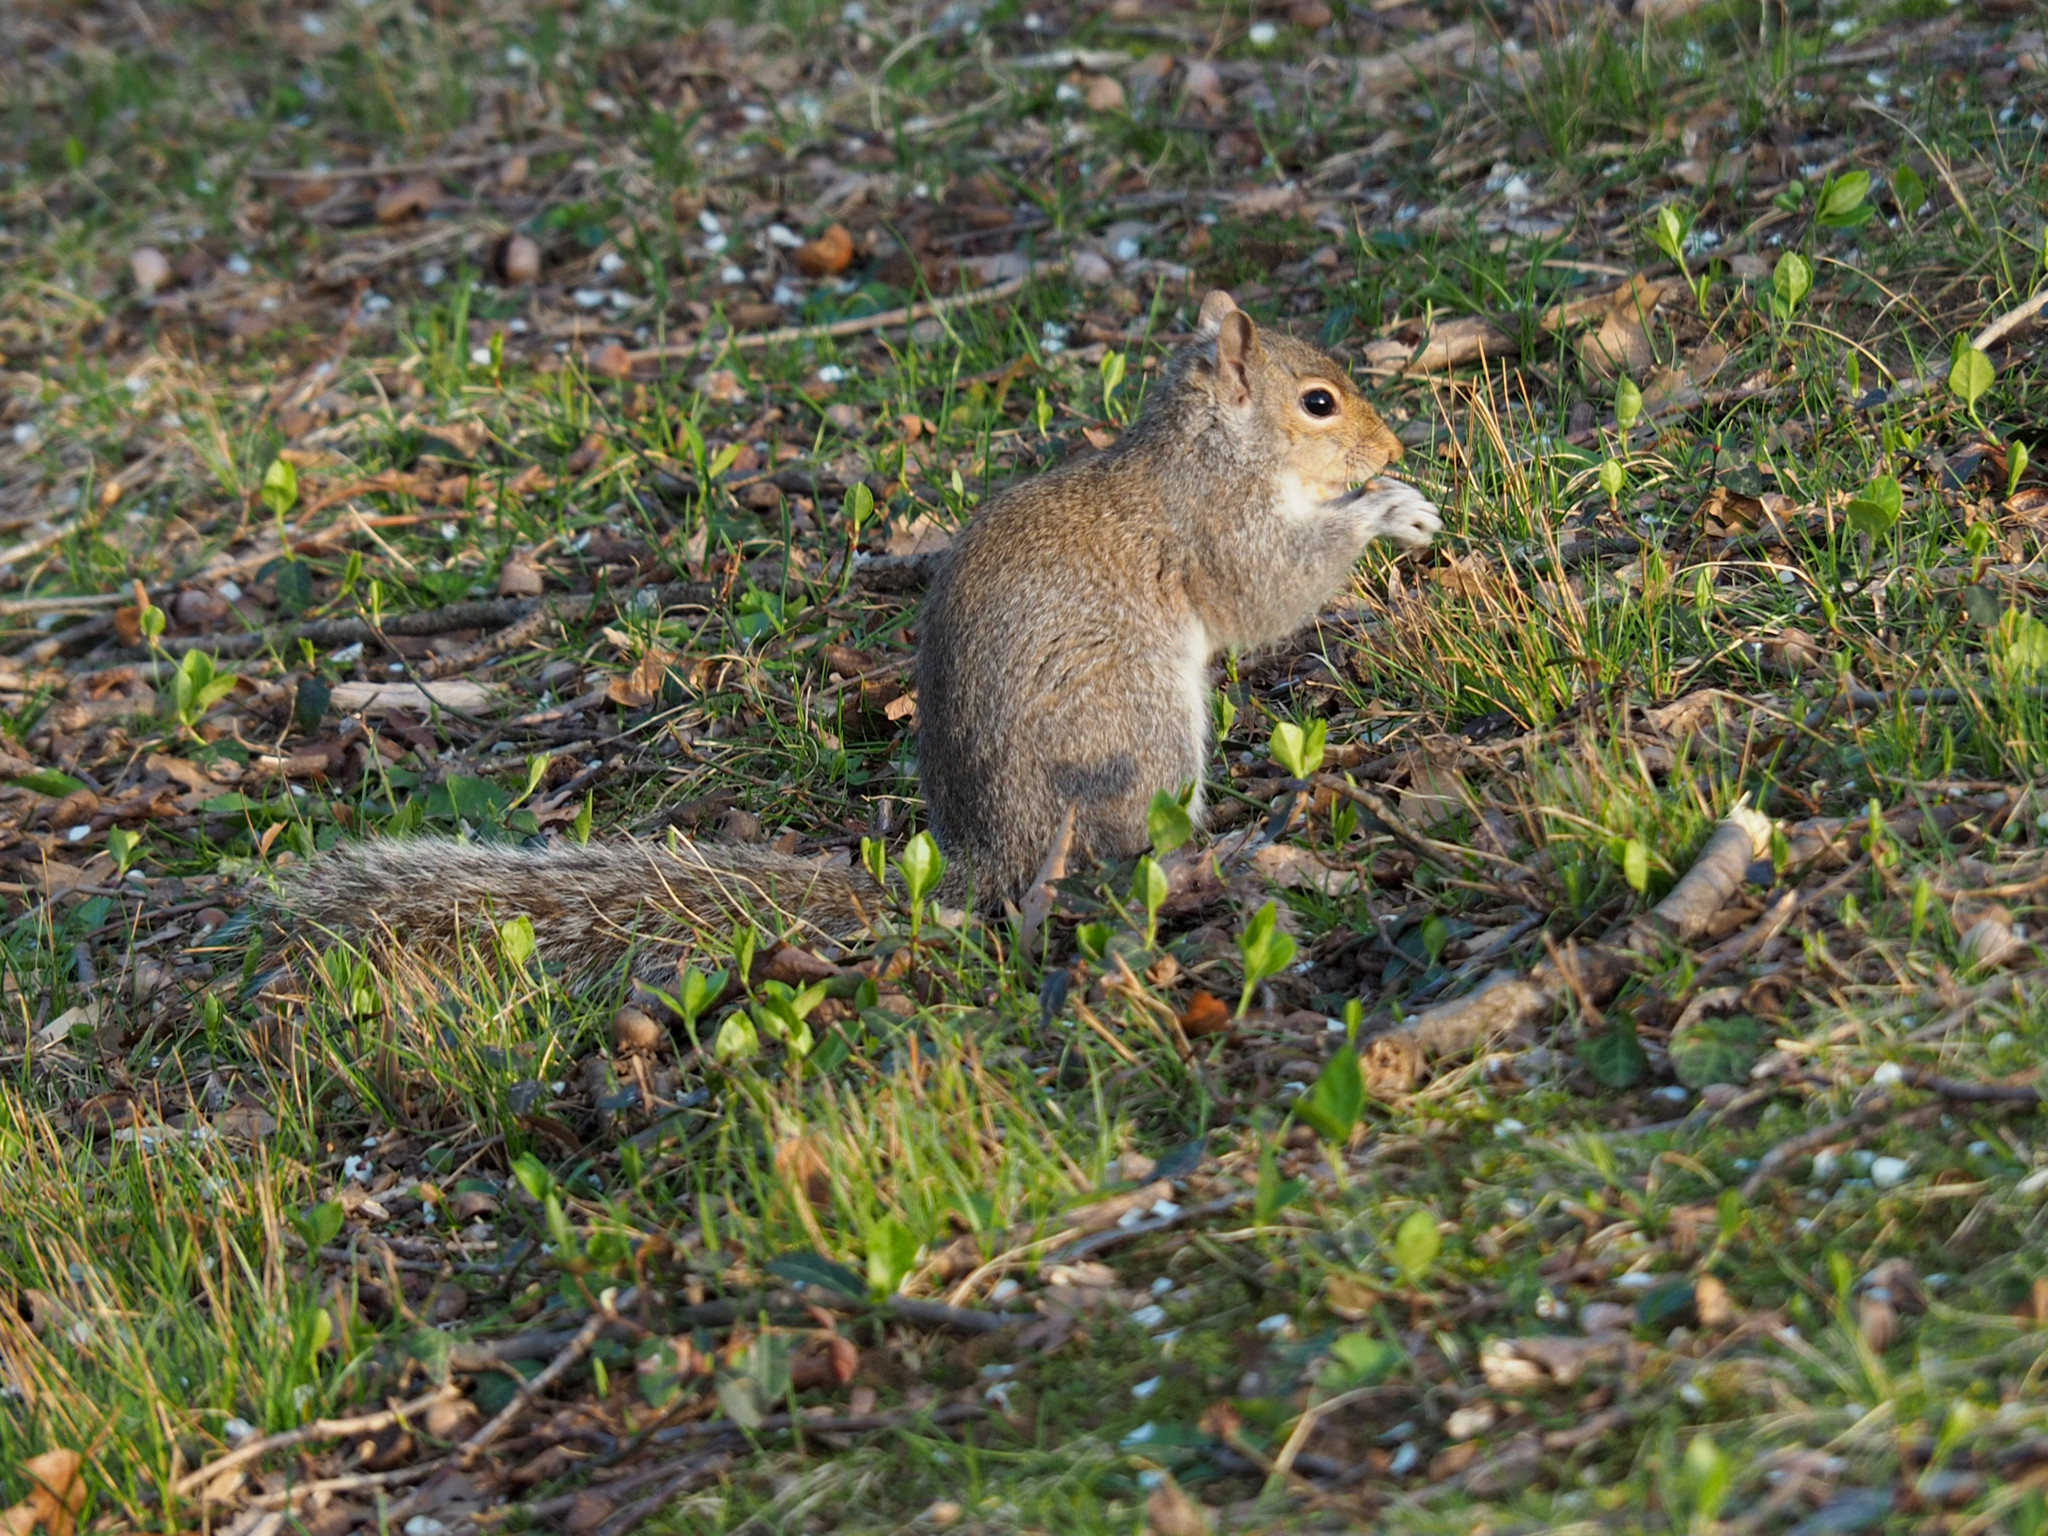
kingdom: Animalia
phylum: Chordata
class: Mammalia
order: Rodentia
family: Sciuridae
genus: Sciurus
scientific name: Sciurus carolinensis
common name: Eastern gray squirrel
